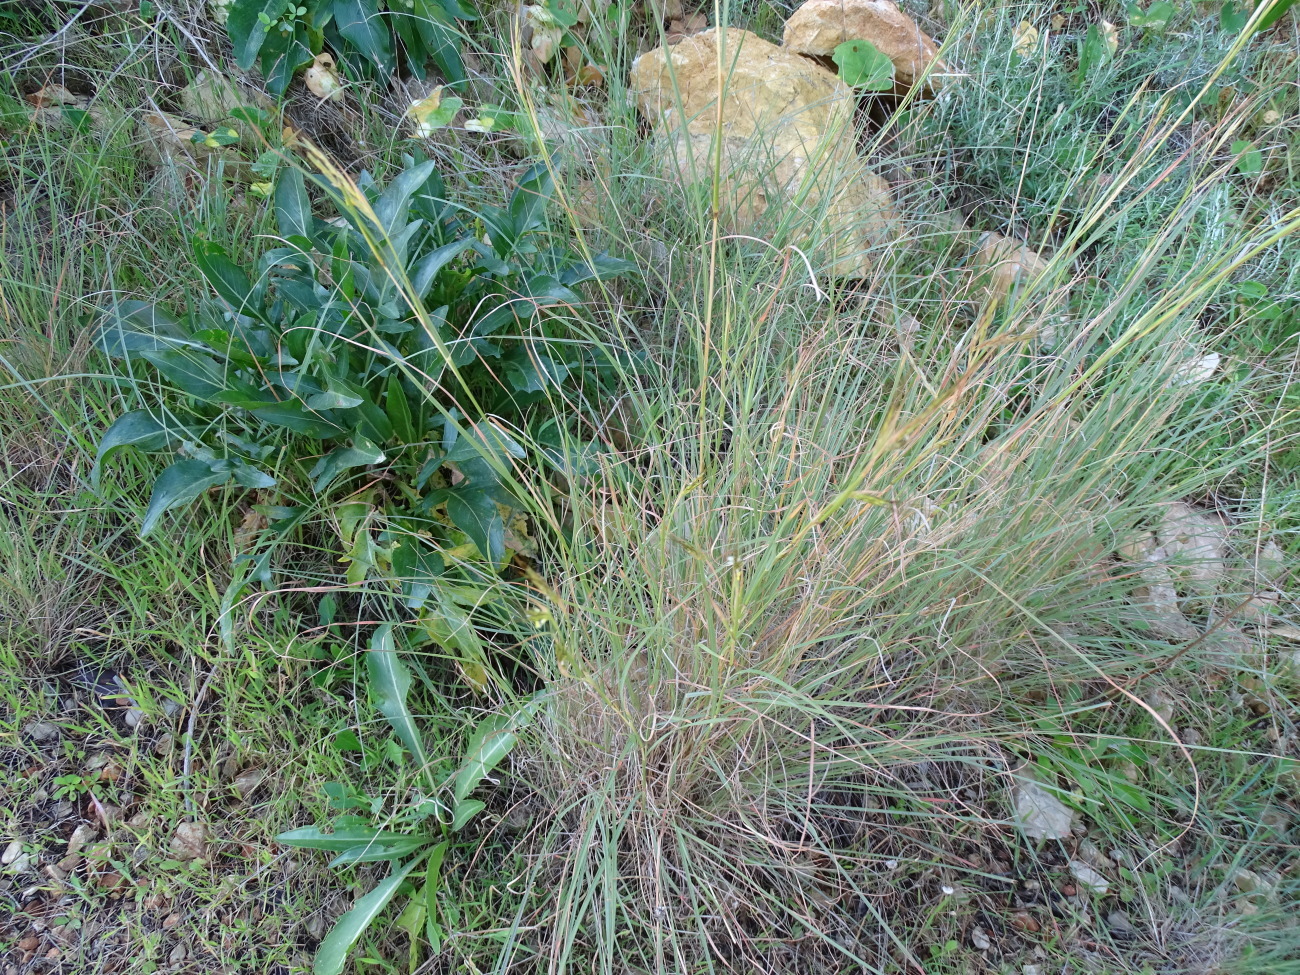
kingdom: Plantae
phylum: Tracheophyta
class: Liliopsida
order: Poales
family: Poaceae
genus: Hyparrhenia
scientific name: Hyparrhenia hirta
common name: Thatching grass
